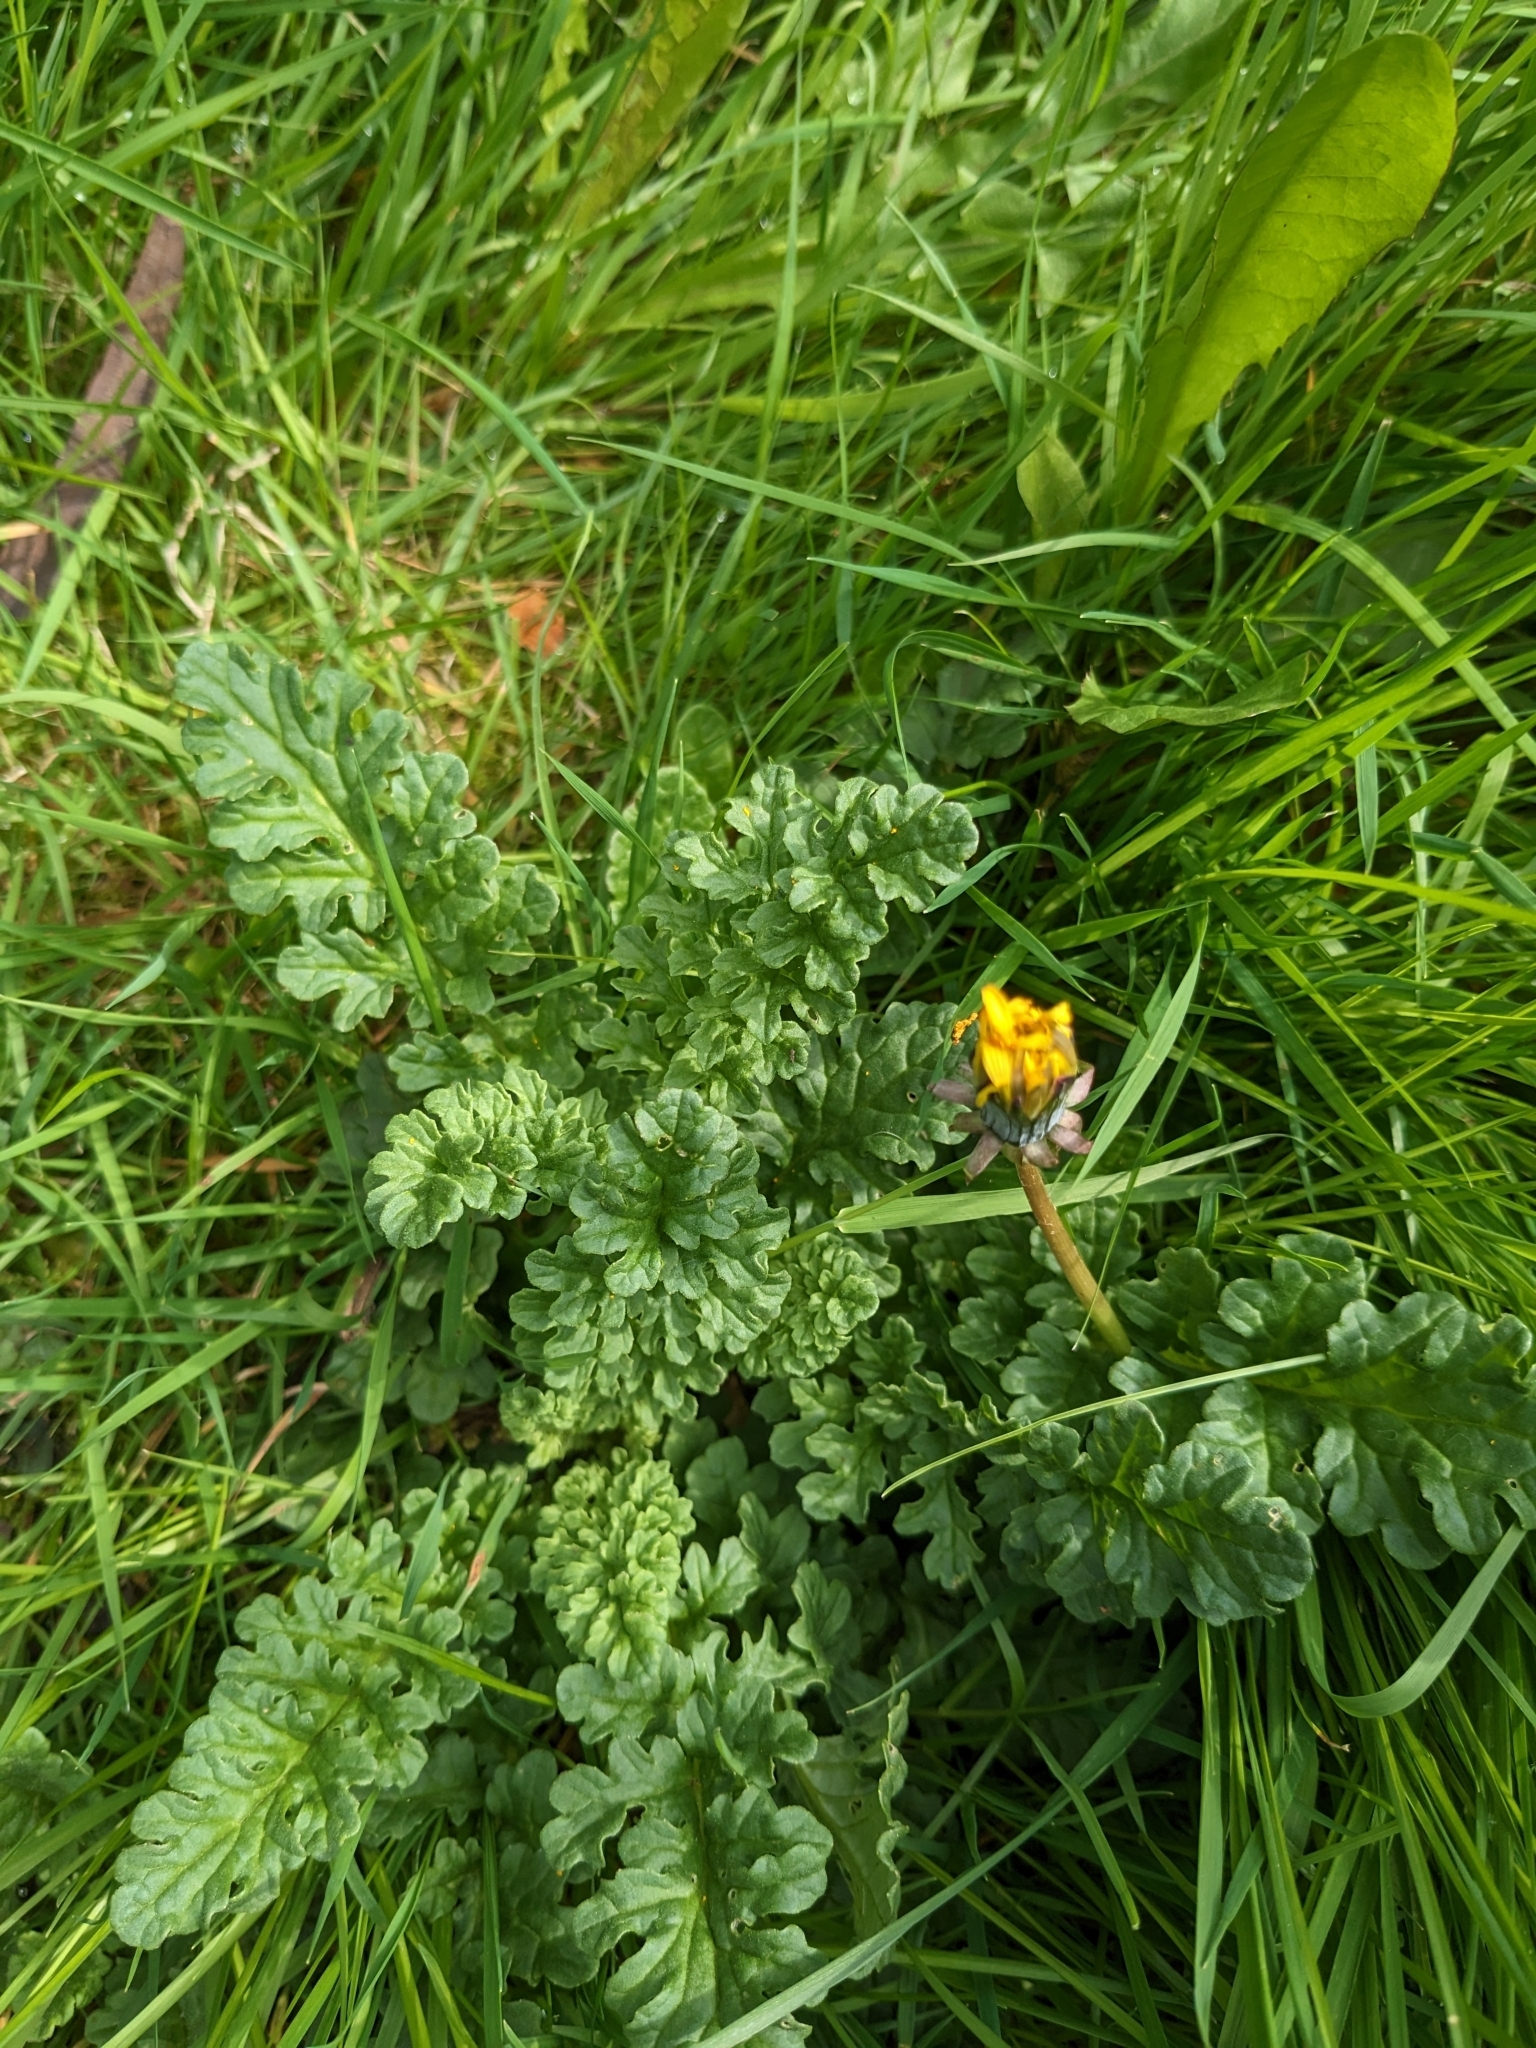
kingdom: Plantae
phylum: Tracheophyta
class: Magnoliopsida
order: Asterales
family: Asteraceae
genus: Jacobaea
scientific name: Jacobaea vulgaris
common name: Stinking willie
